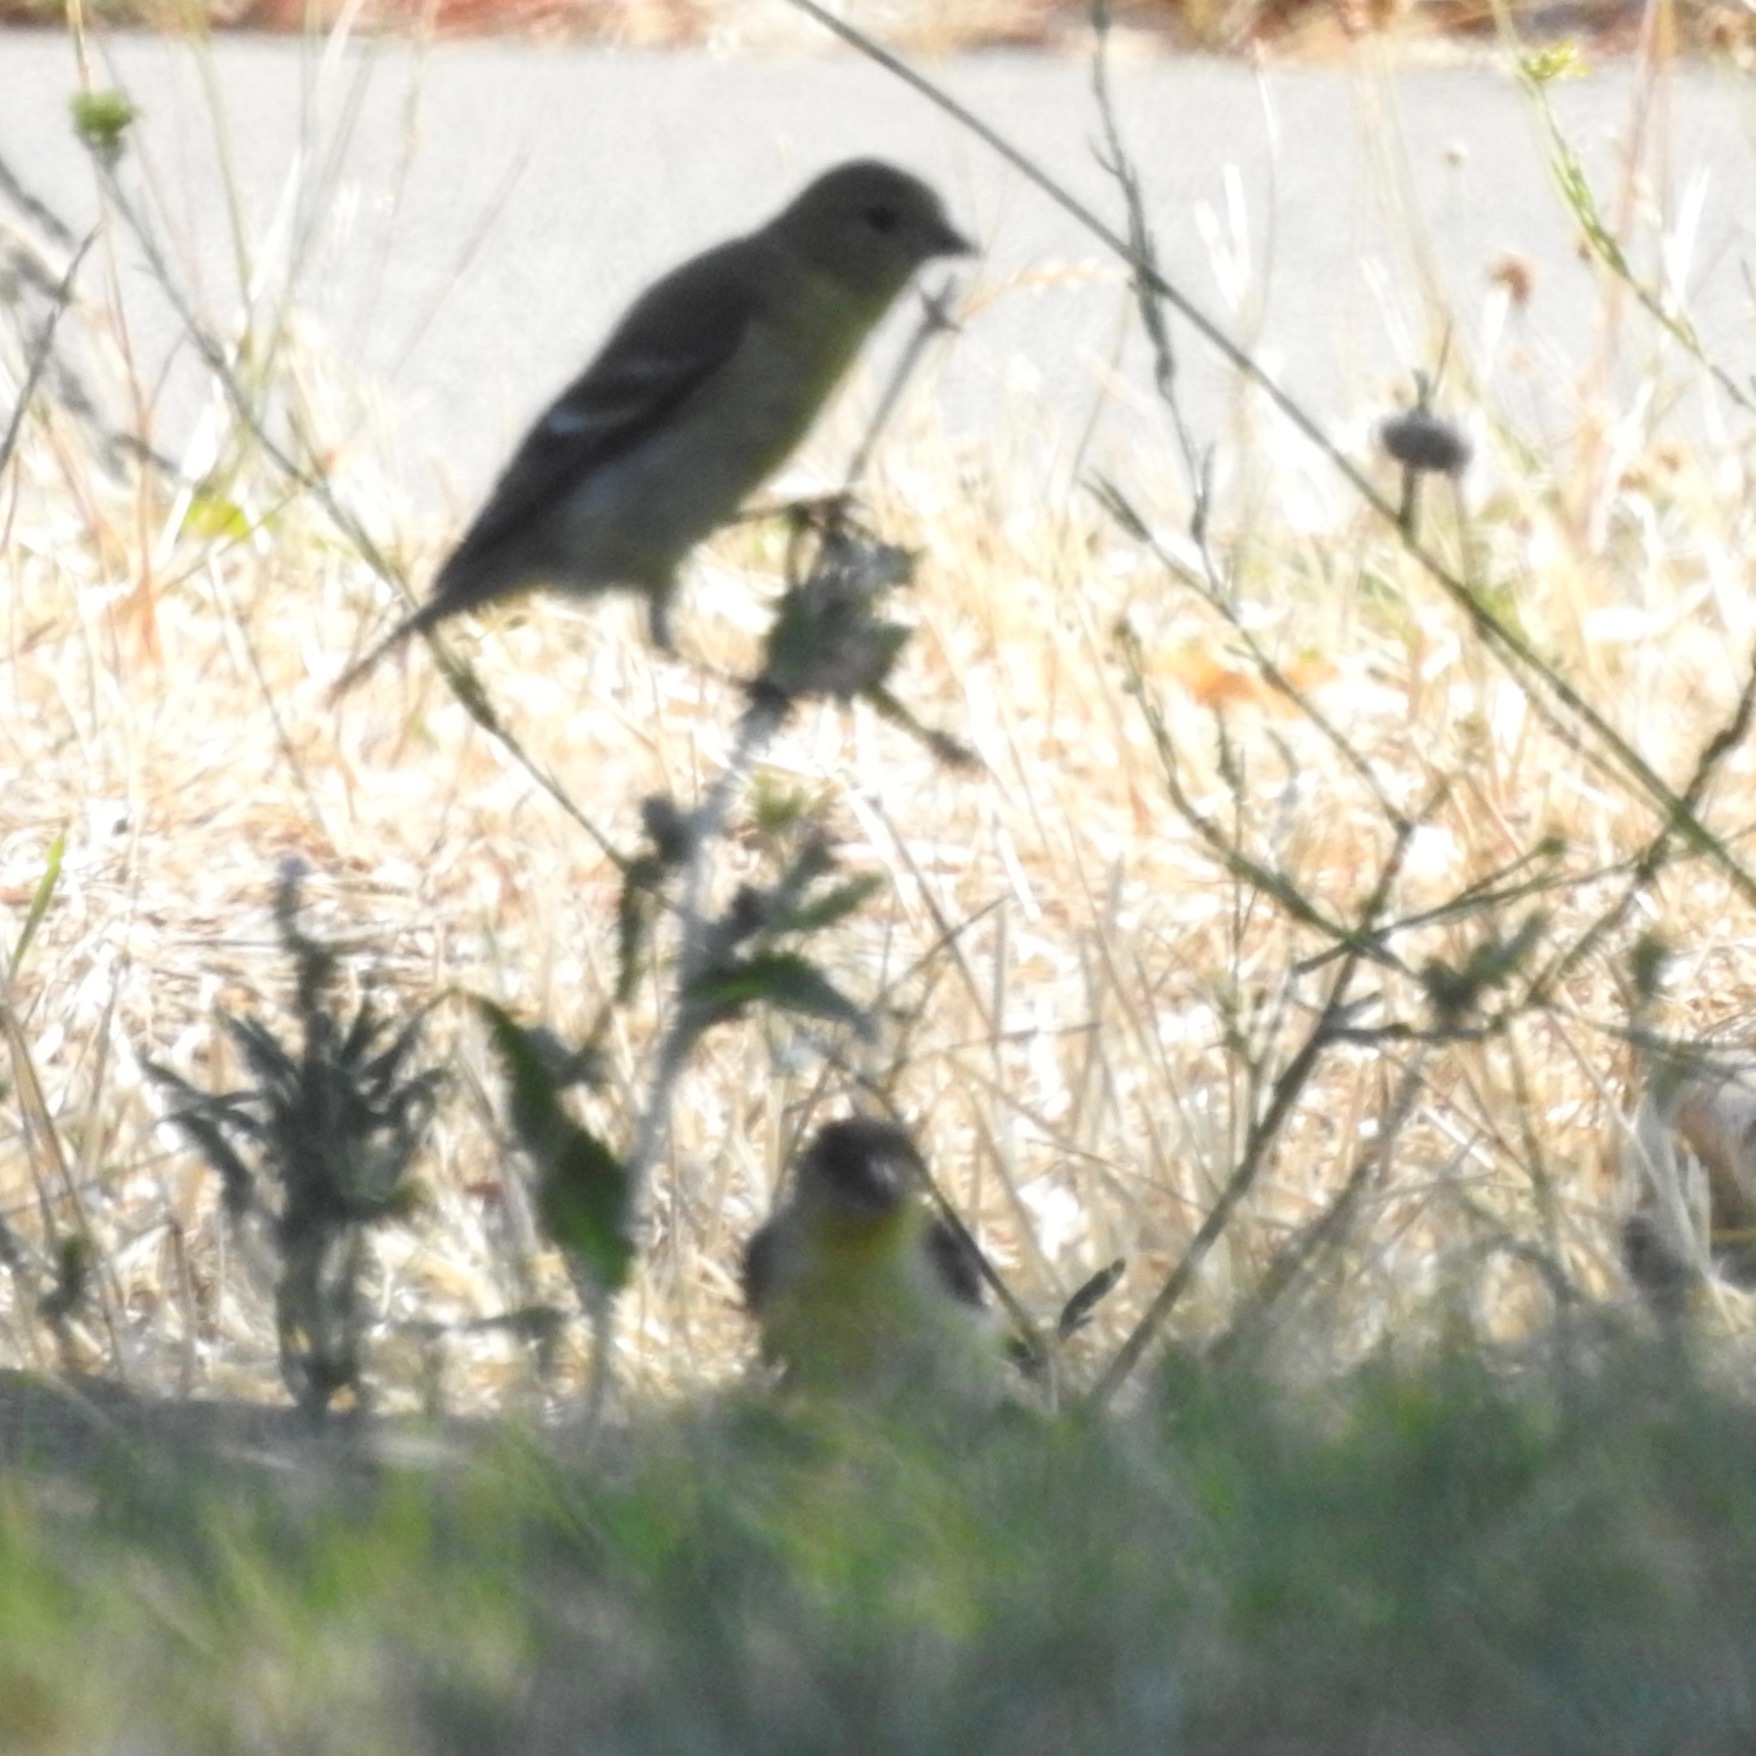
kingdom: Animalia
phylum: Chordata
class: Aves
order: Passeriformes
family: Fringillidae
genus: Spinus
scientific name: Spinus tristis
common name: American goldfinch
